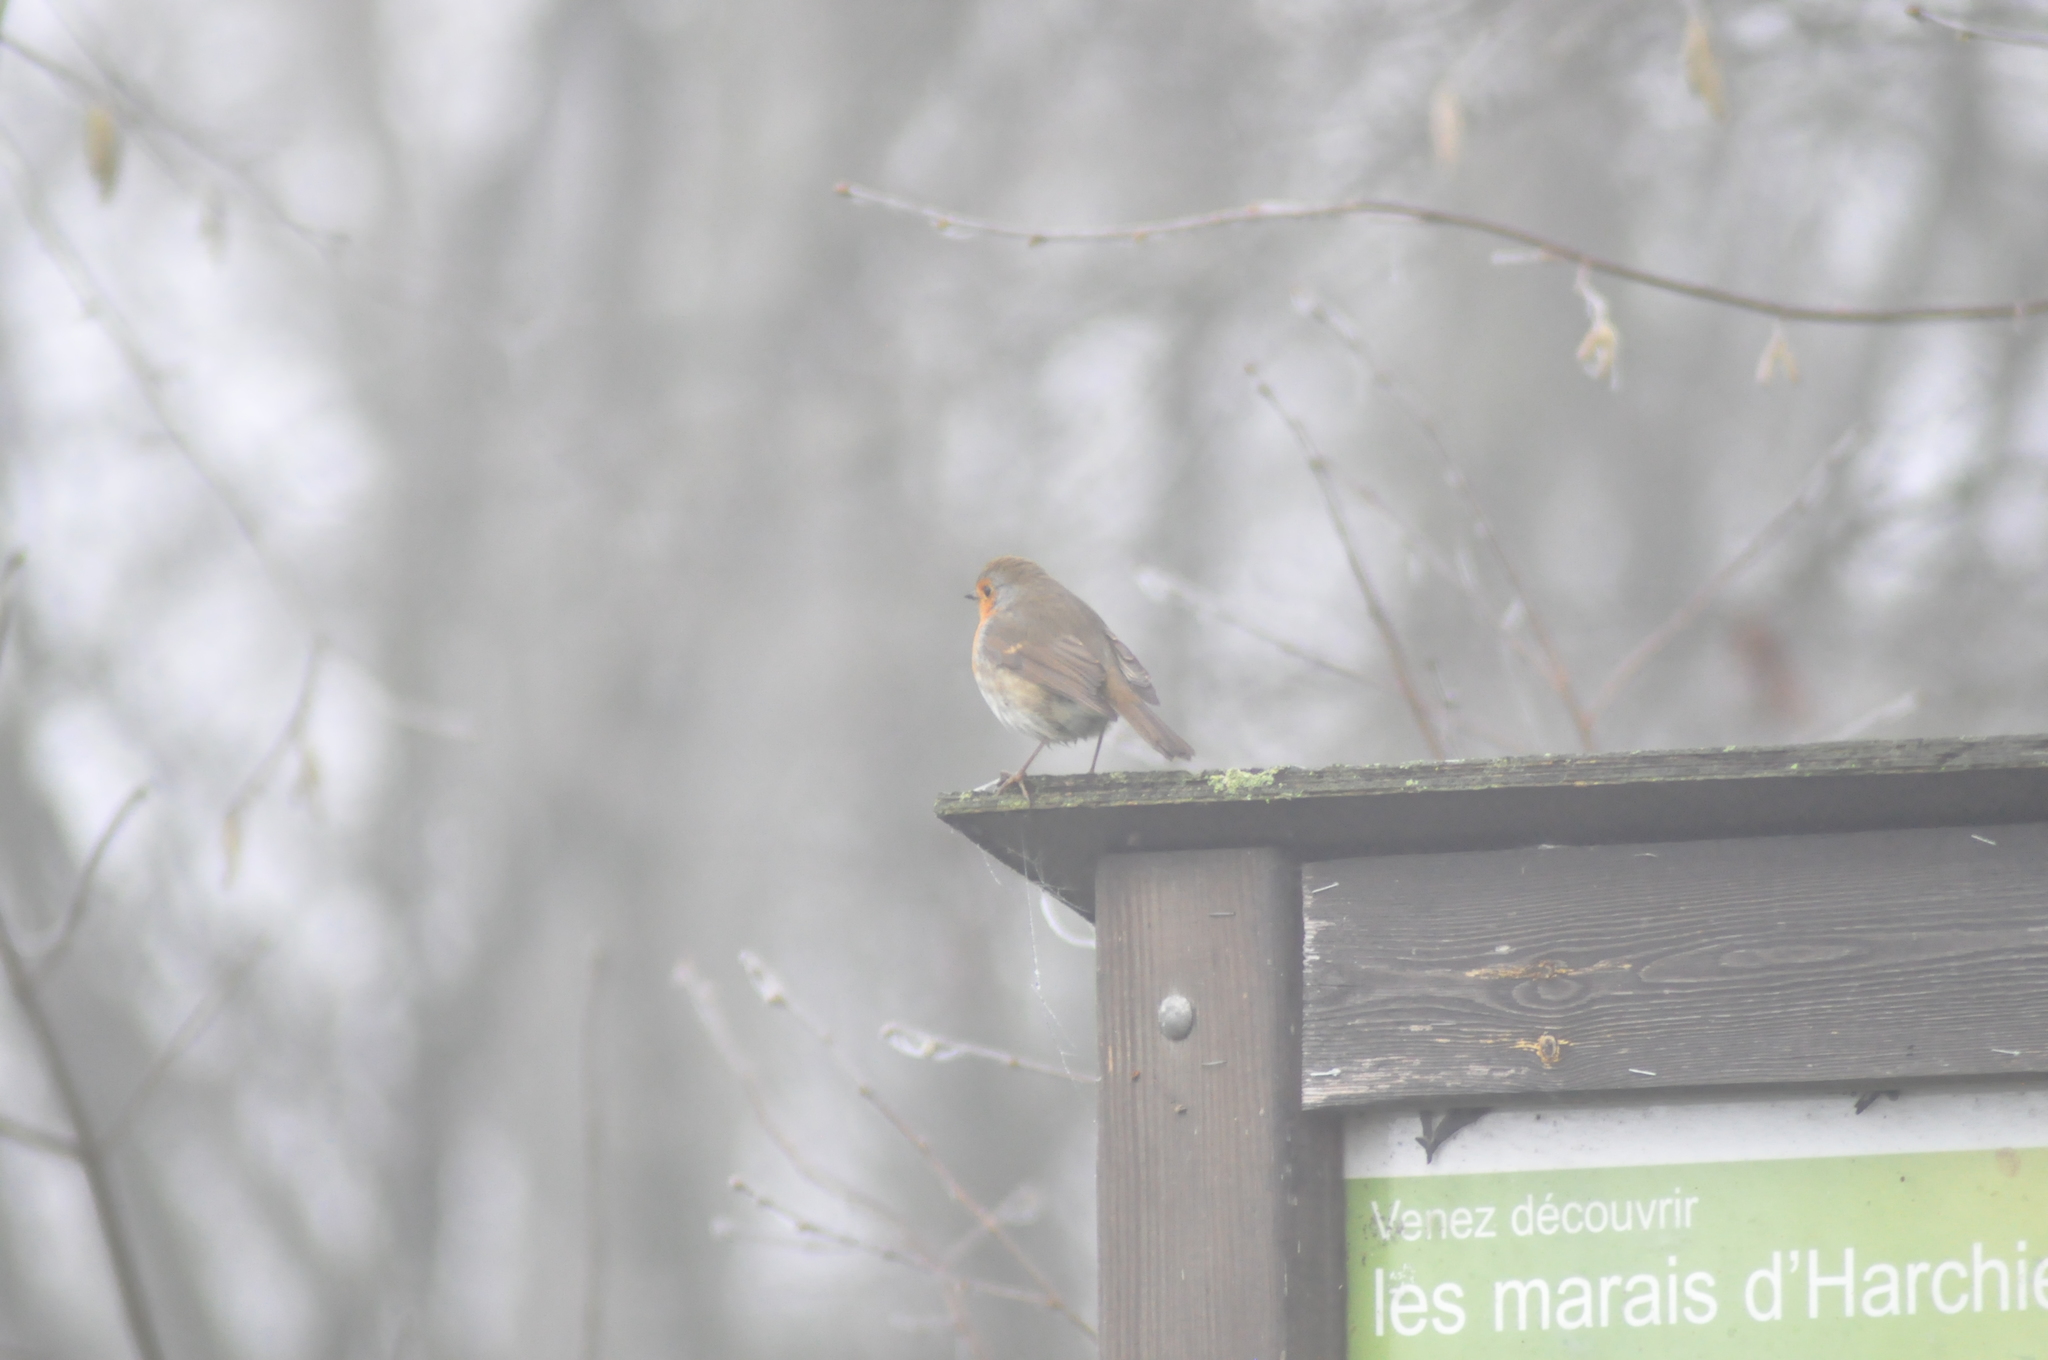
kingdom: Animalia
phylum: Chordata
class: Aves
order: Passeriformes
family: Muscicapidae
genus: Erithacus
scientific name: Erithacus rubecula
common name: European robin
